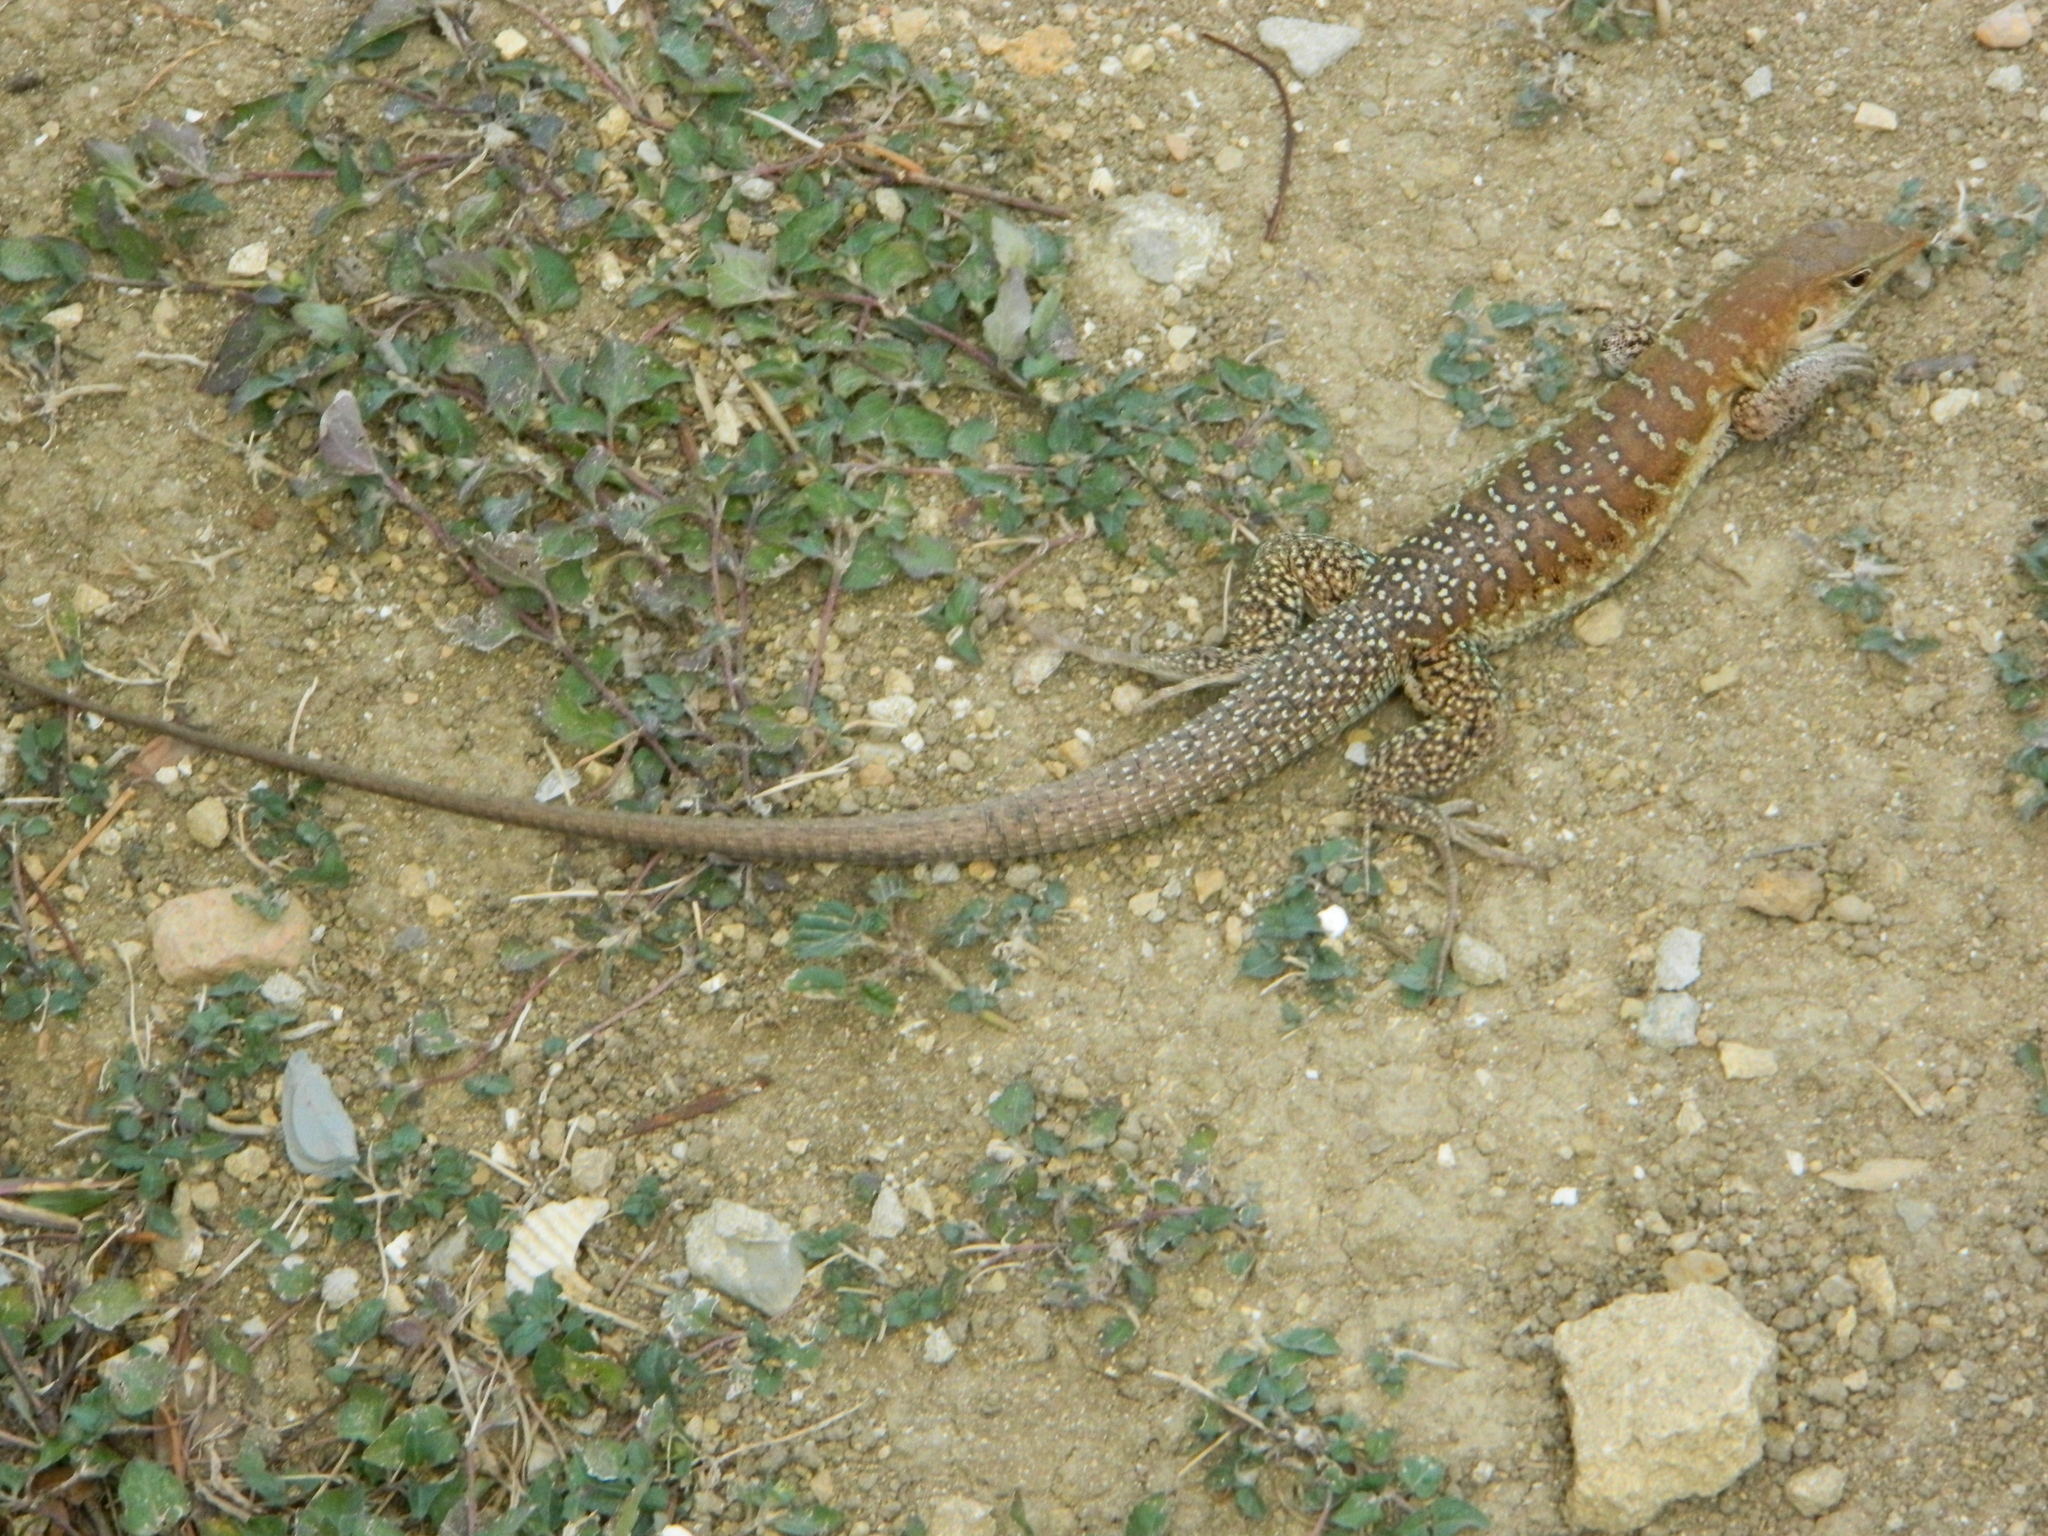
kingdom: Animalia
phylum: Chordata
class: Squamata
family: Teiidae
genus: Pholidoscelis
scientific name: Pholidoscelis griswoldi
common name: Antiguan ameiva
